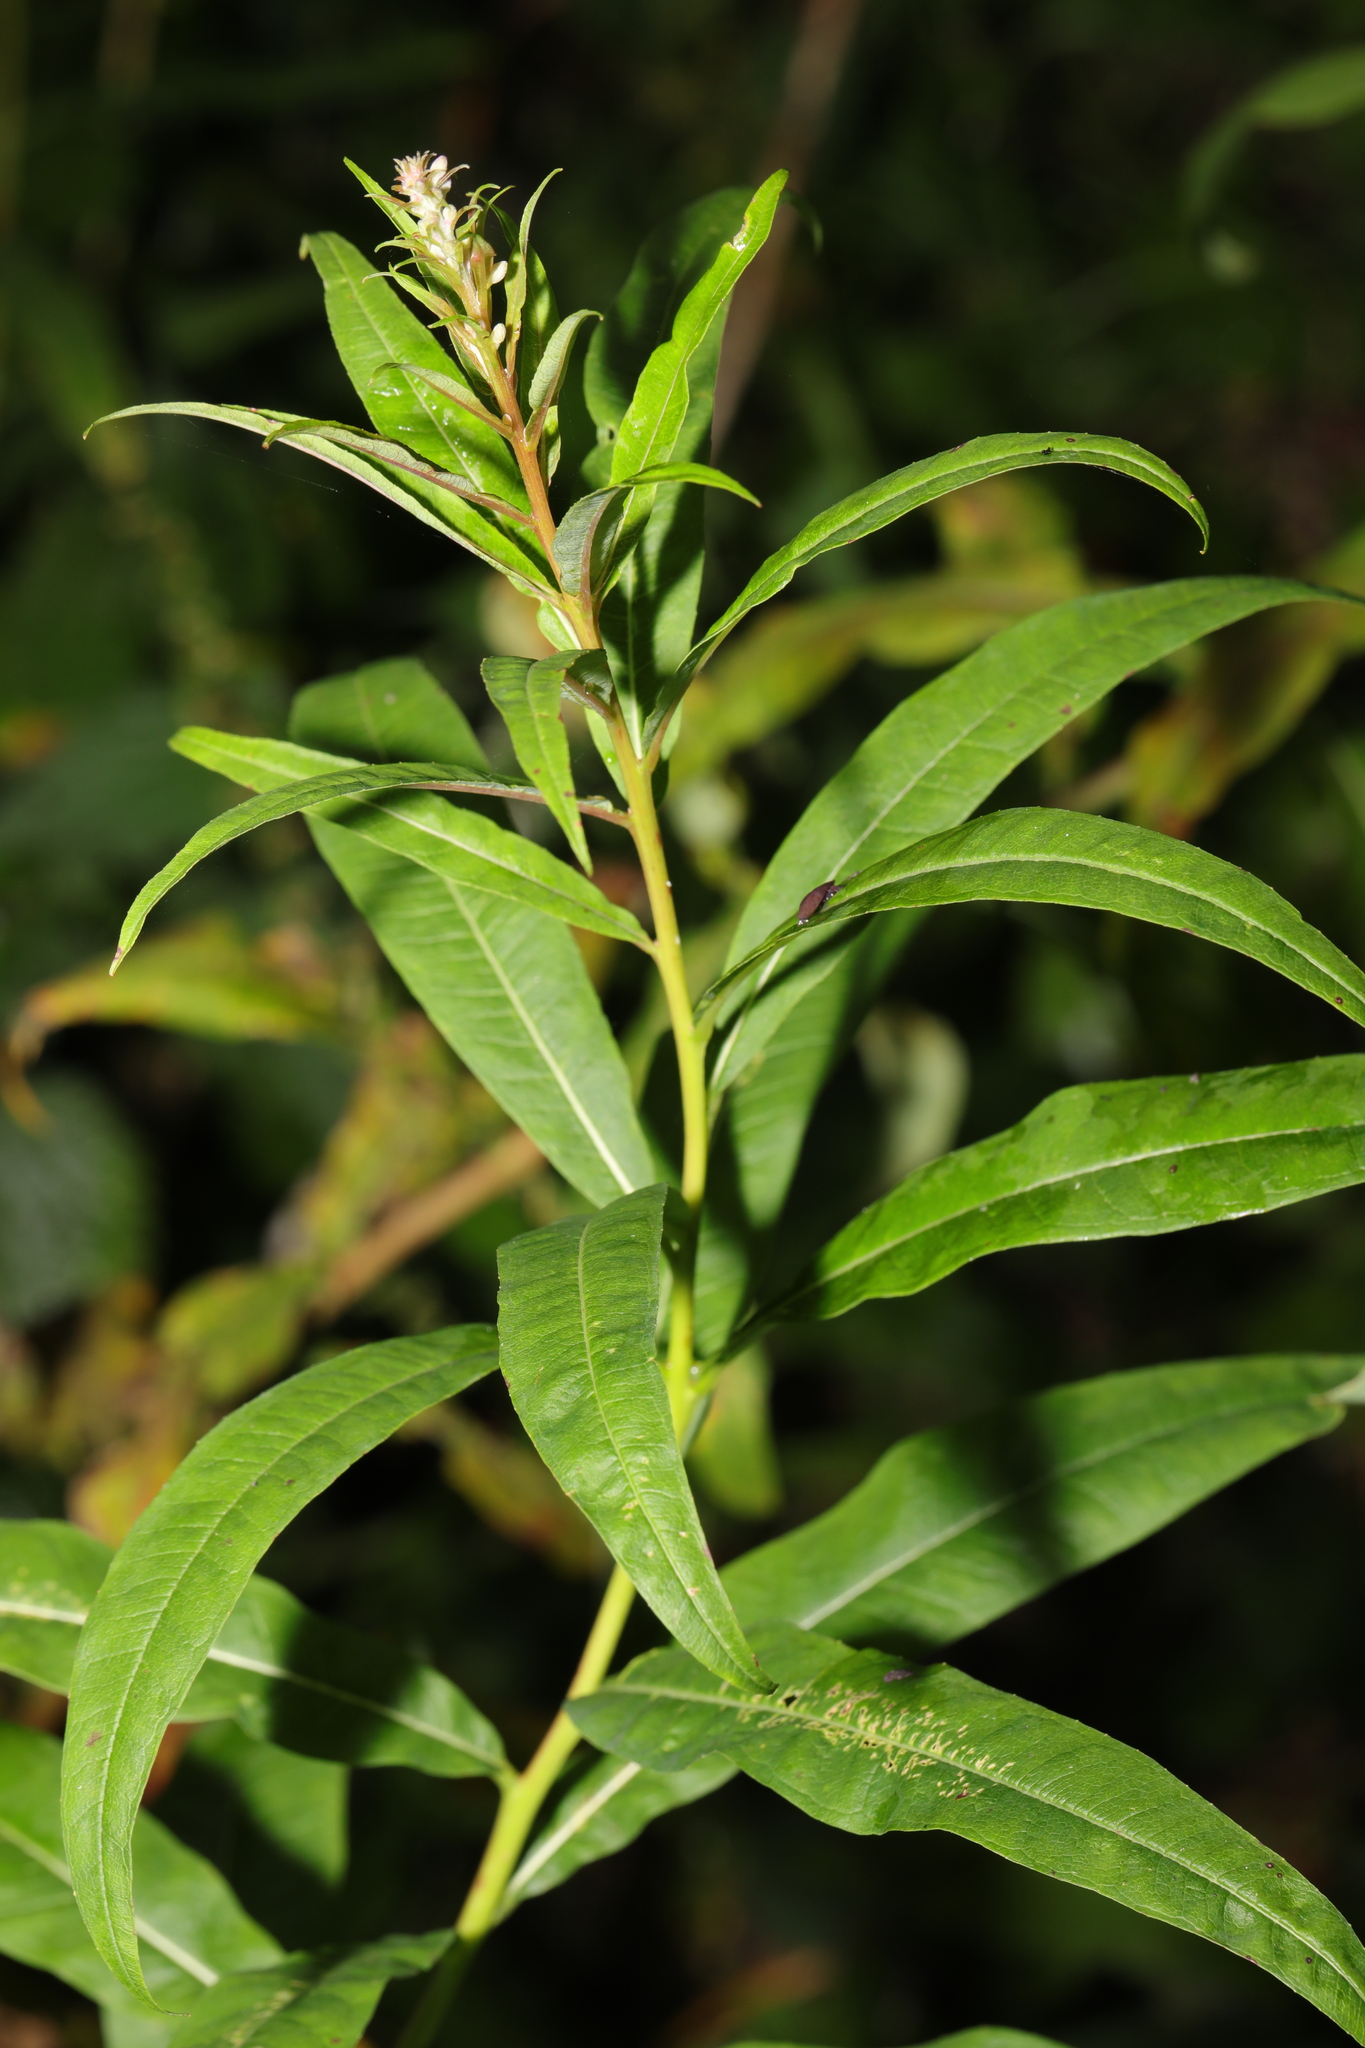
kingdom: Plantae
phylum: Tracheophyta
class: Magnoliopsida
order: Myrtales
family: Onagraceae
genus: Chamaenerion
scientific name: Chamaenerion angustifolium
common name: Fireweed
